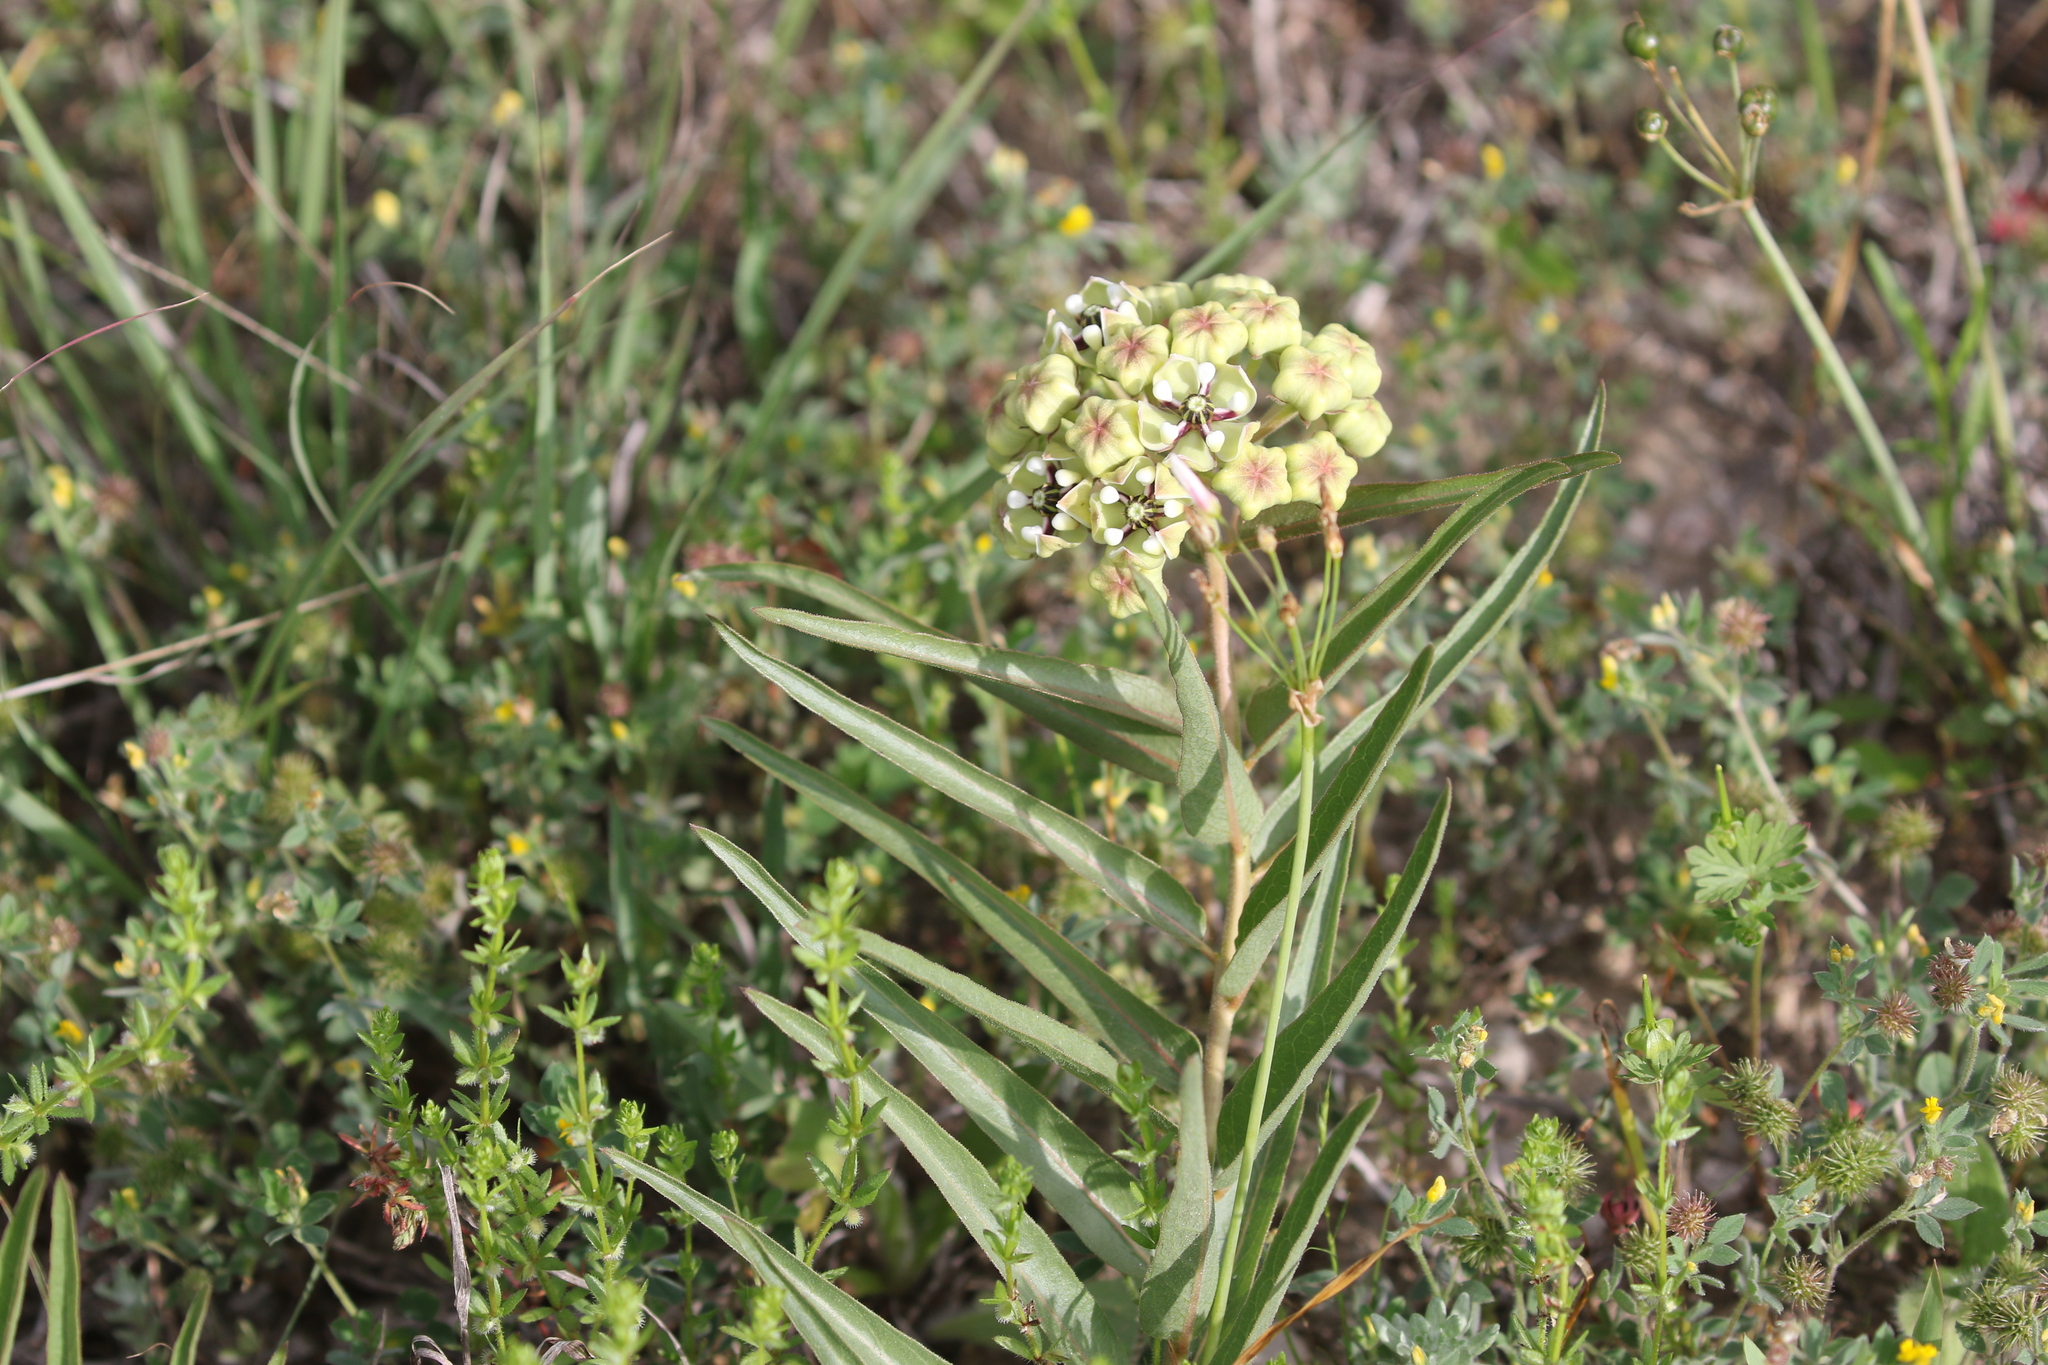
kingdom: Plantae
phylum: Tracheophyta
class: Magnoliopsida
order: Gentianales
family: Apocynaceae
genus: Asclepias
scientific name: Asclepias asperula
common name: Antelope horns
